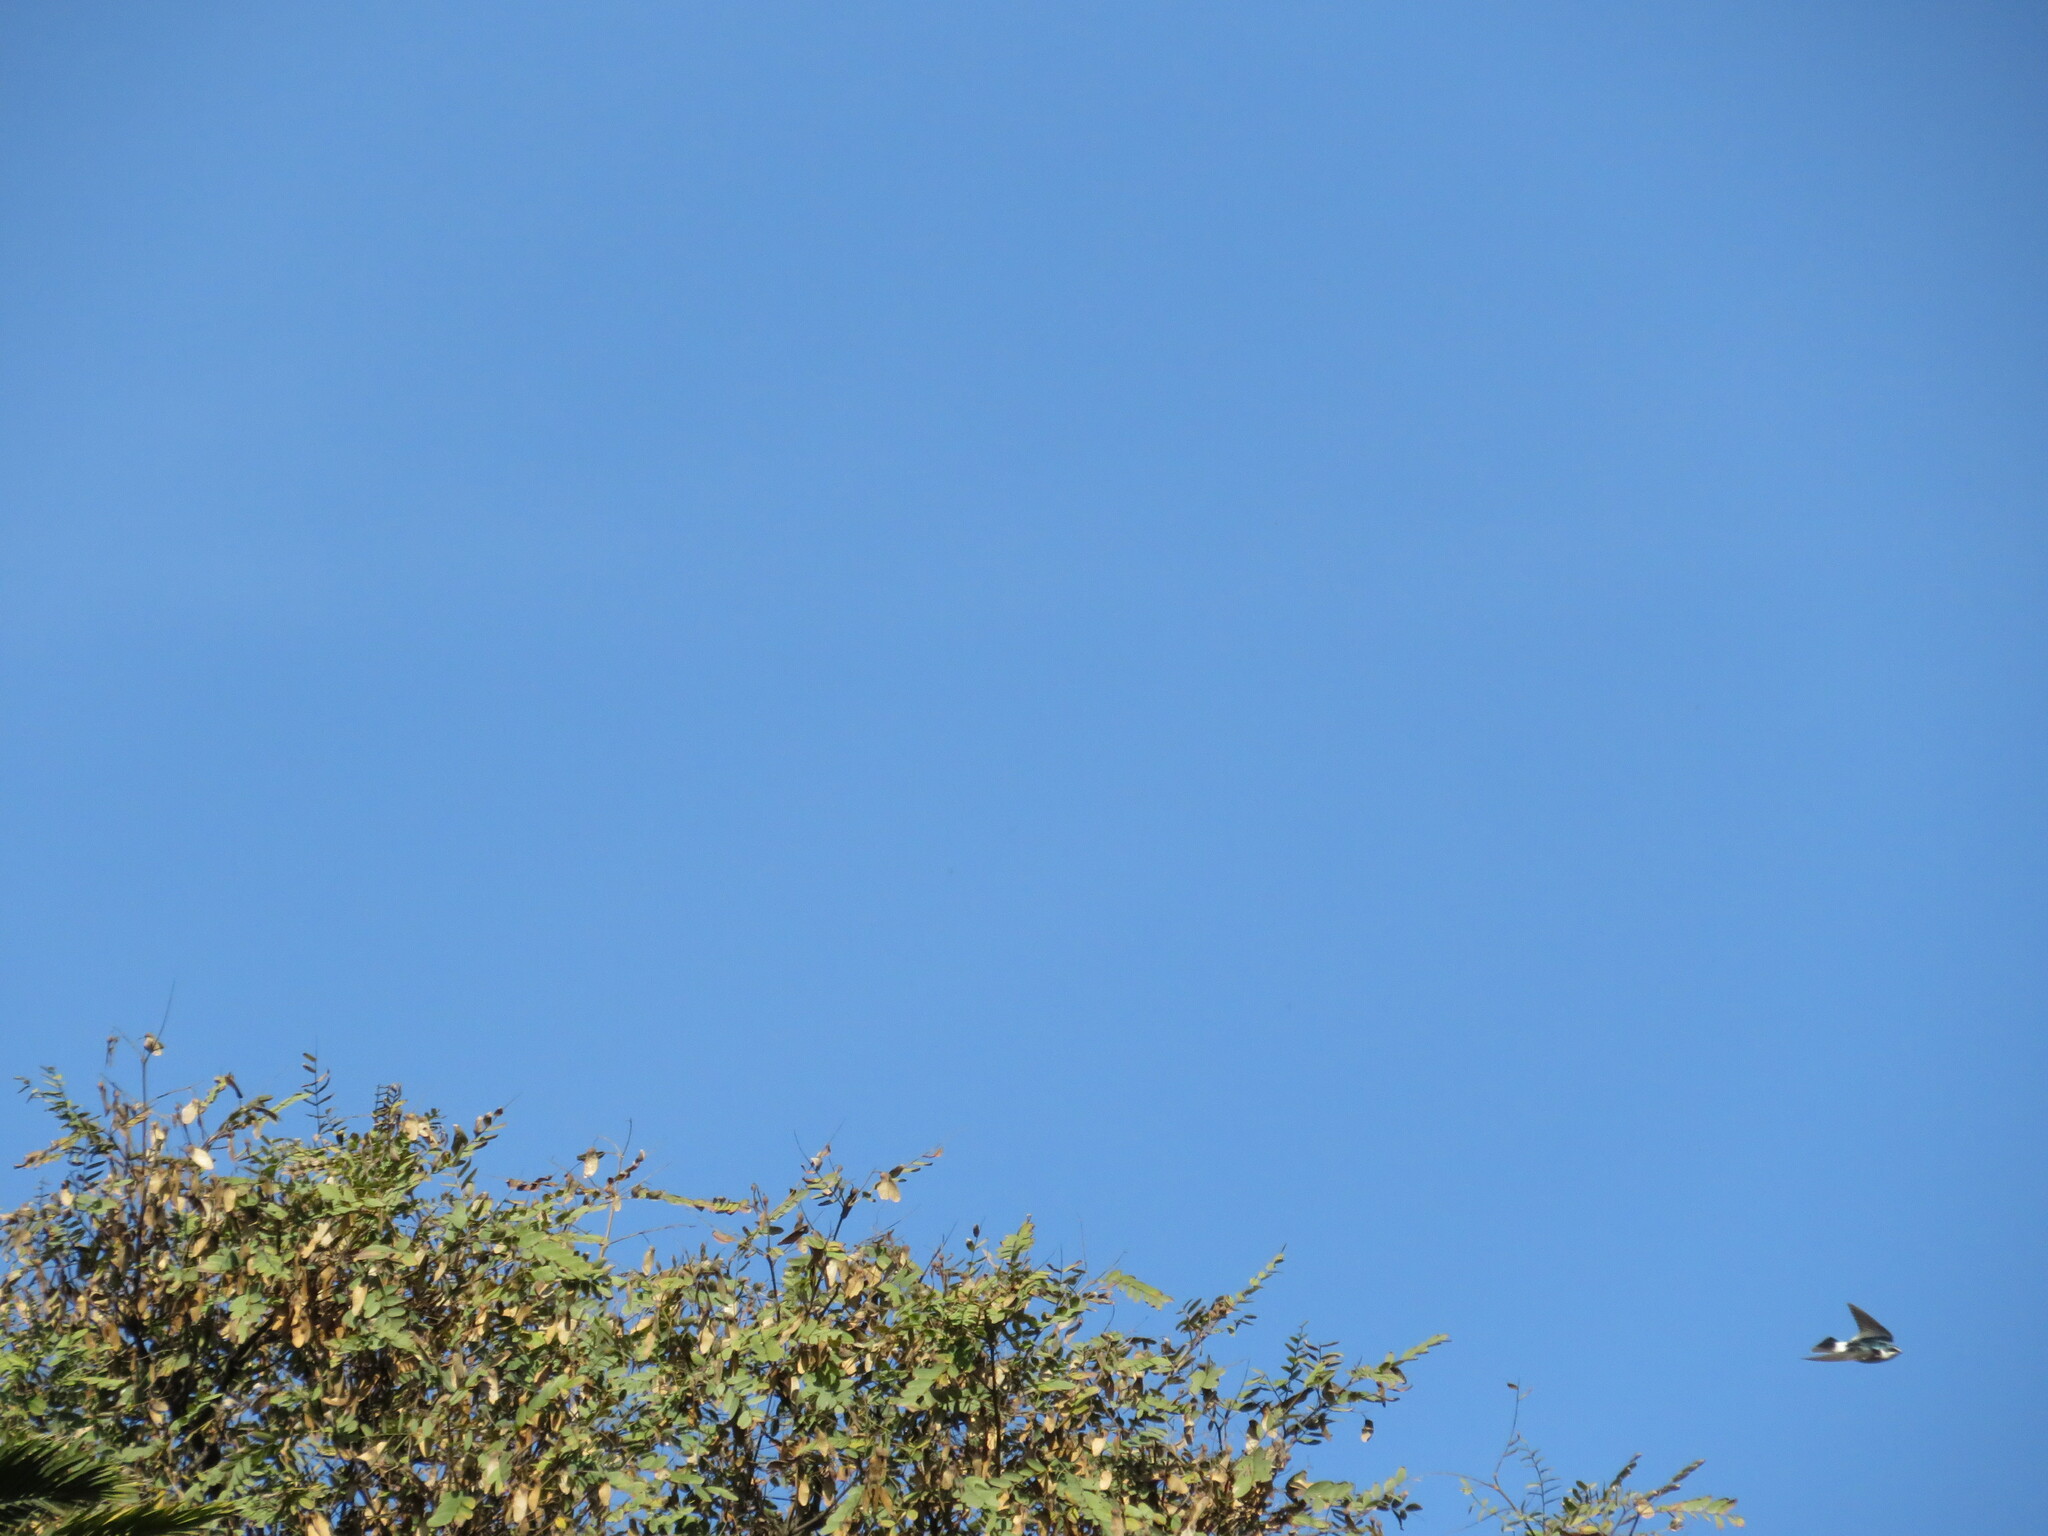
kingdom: Animalia
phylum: Chordata
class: Aves
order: Passeriformes
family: Hirundinidae
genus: Tachycineta
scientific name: Tachycineta leucorrhoa
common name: White-rumped swallow
